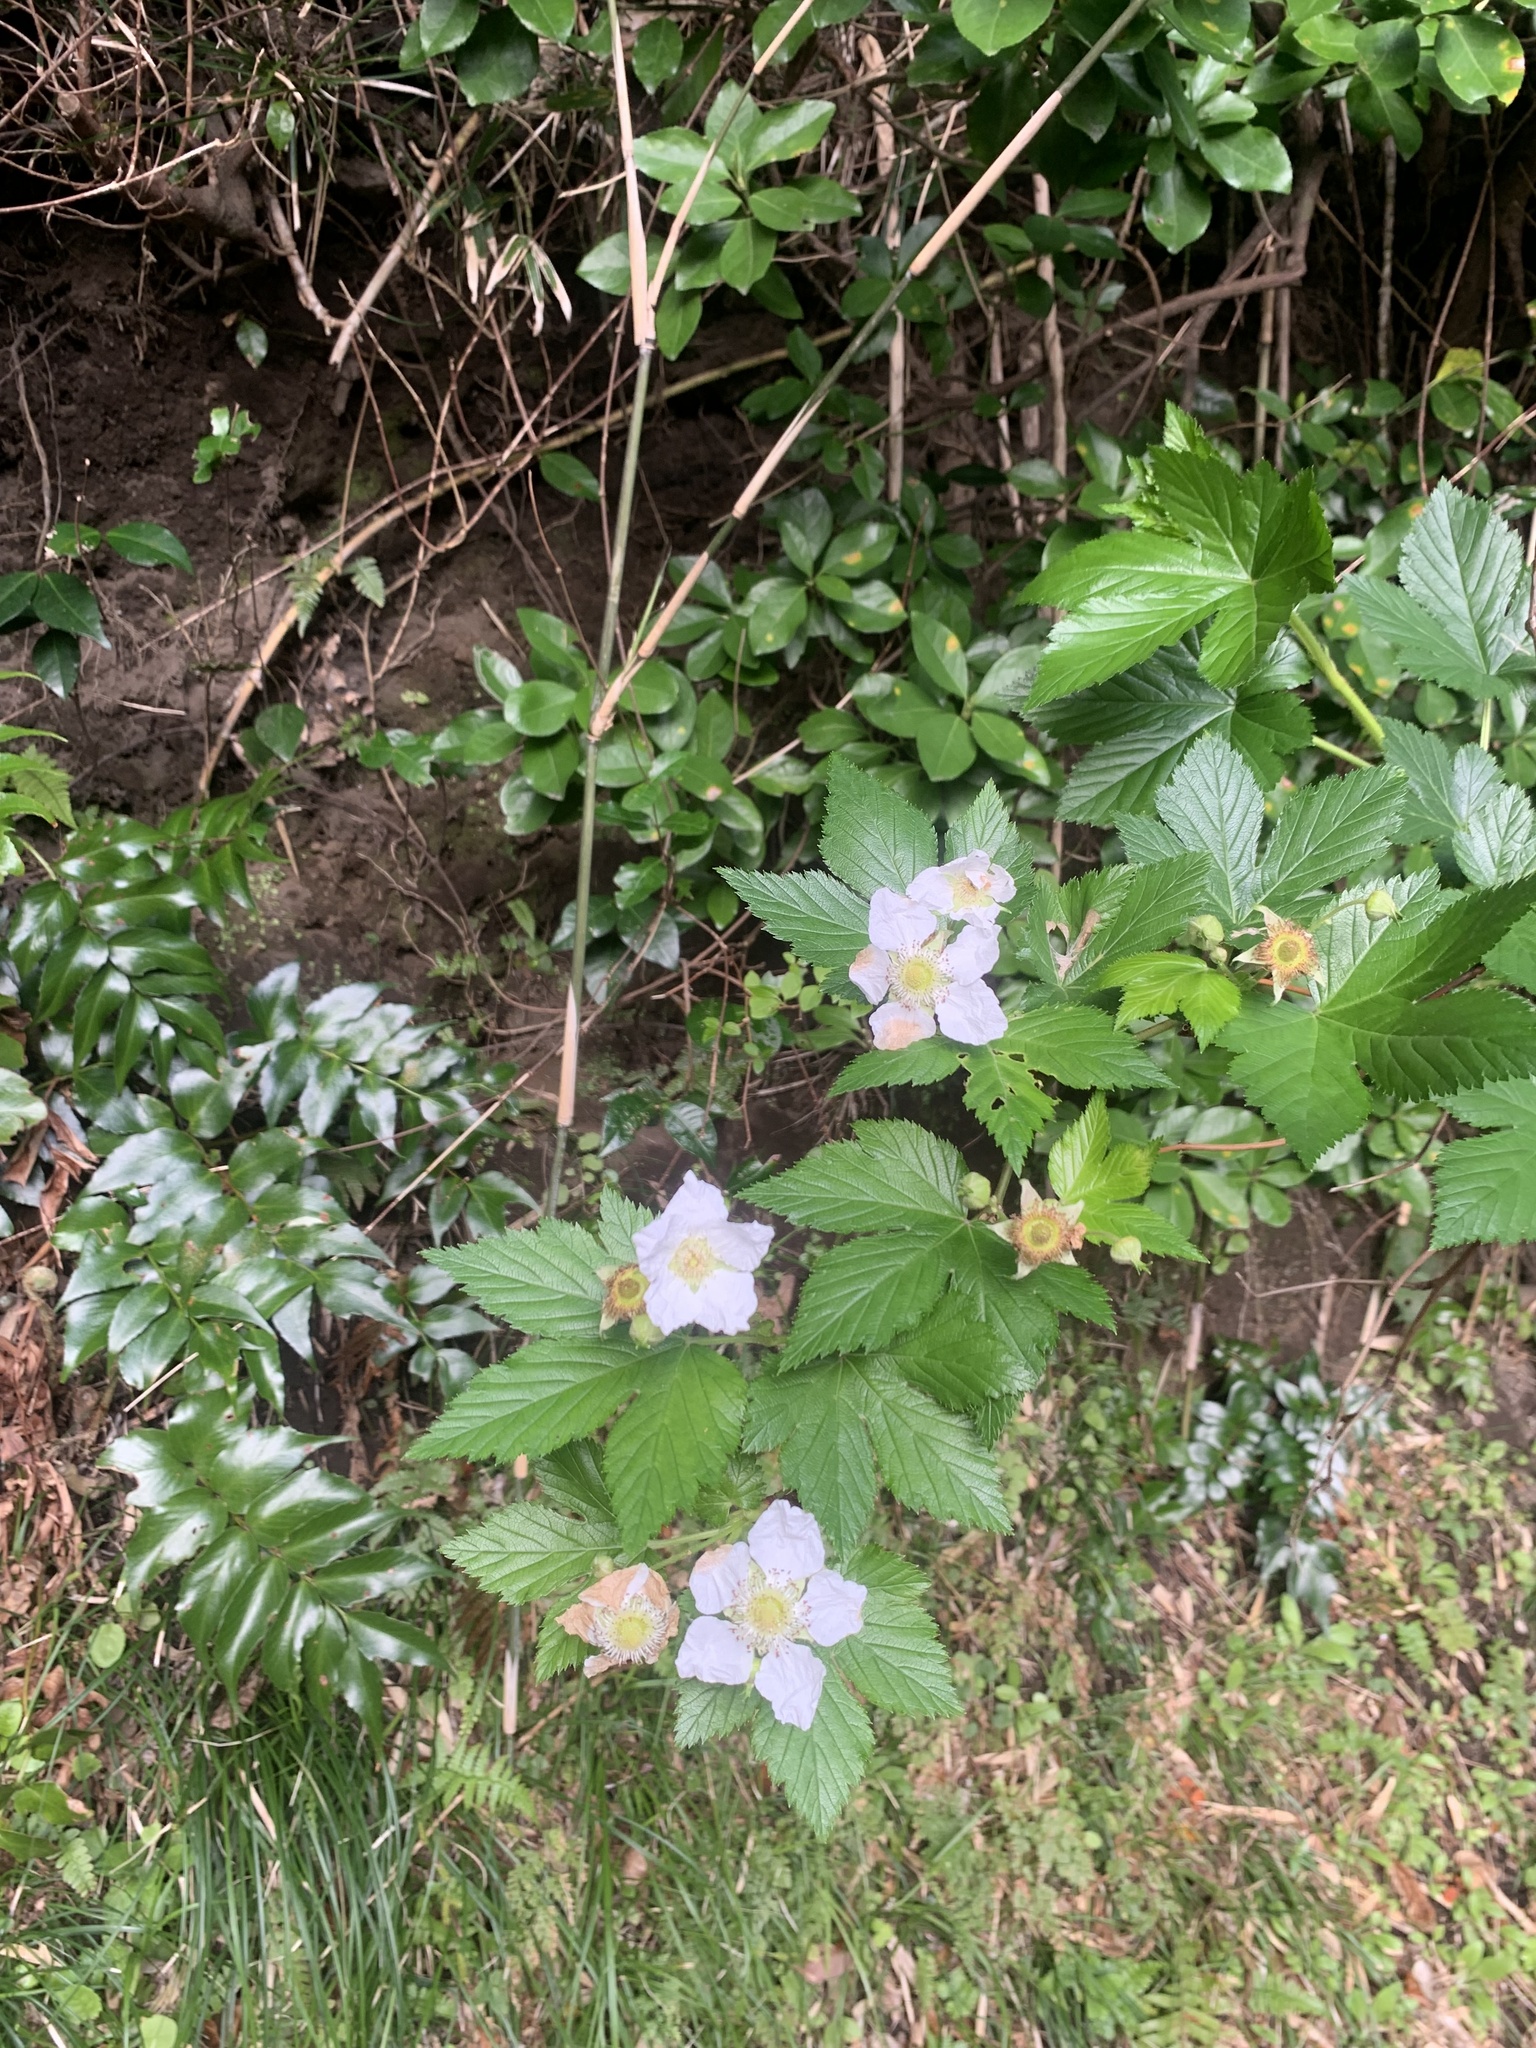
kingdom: Plantae
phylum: Tracheophyta
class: Magnoliopsida
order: Rosales
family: Rosaceae
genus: Rubus
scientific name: Rubus trifidus
